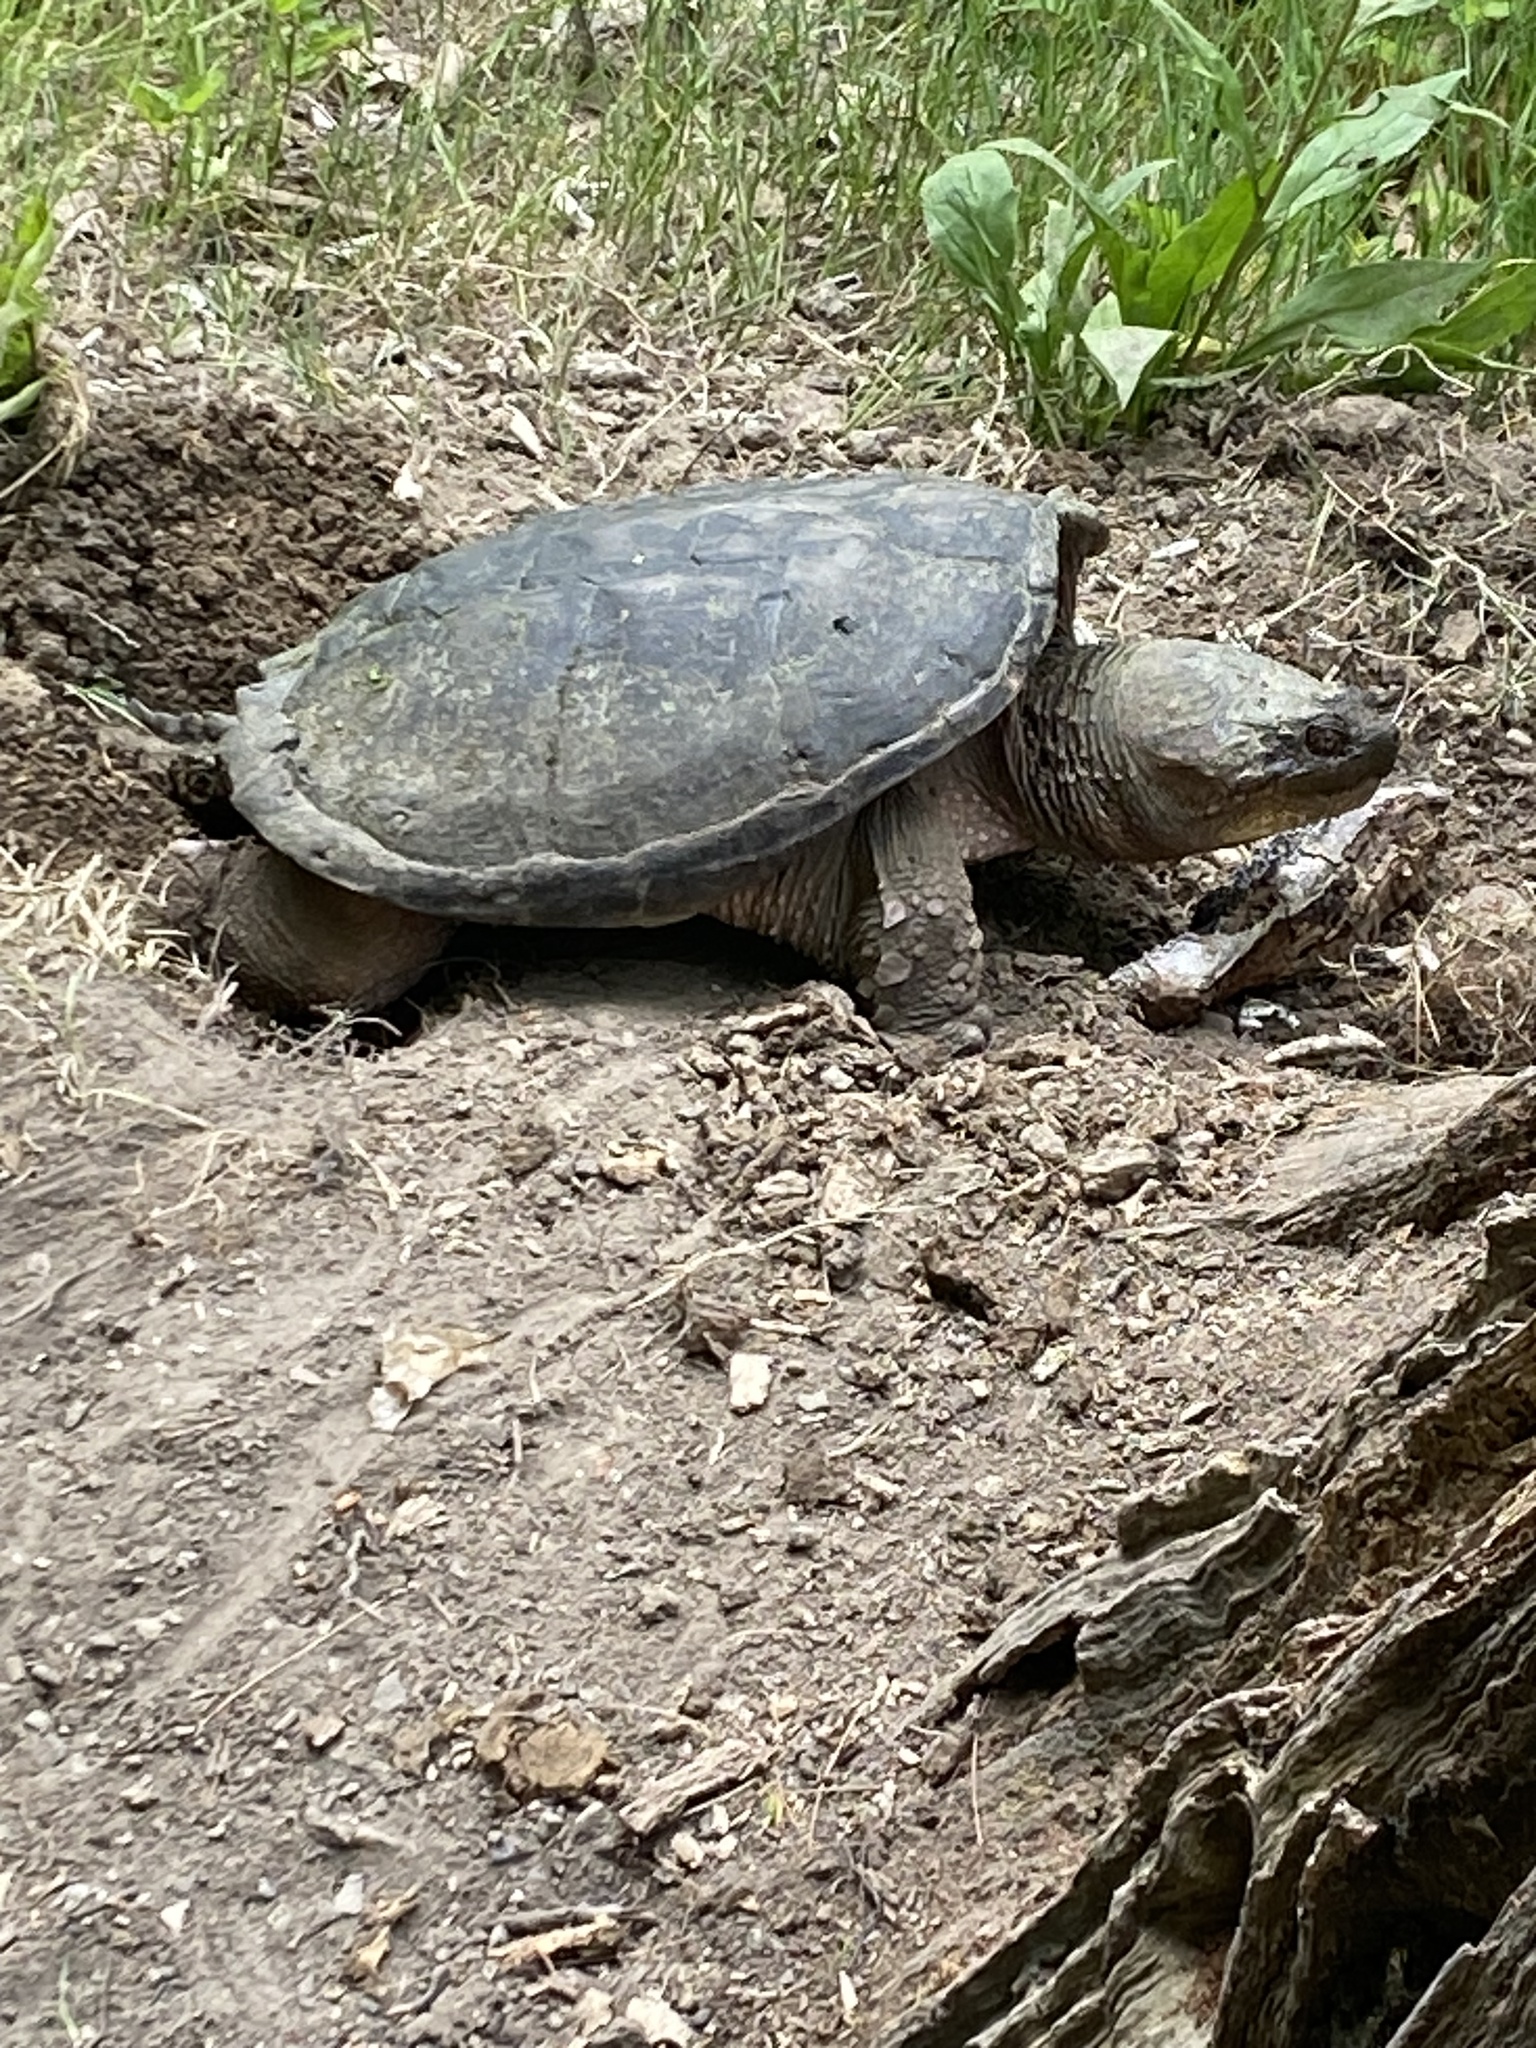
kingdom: Animalia
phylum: Chordata
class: Testudines
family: Chelydridae
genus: Chelydra
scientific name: Chelydra serpentina
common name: Common snapping turtle
